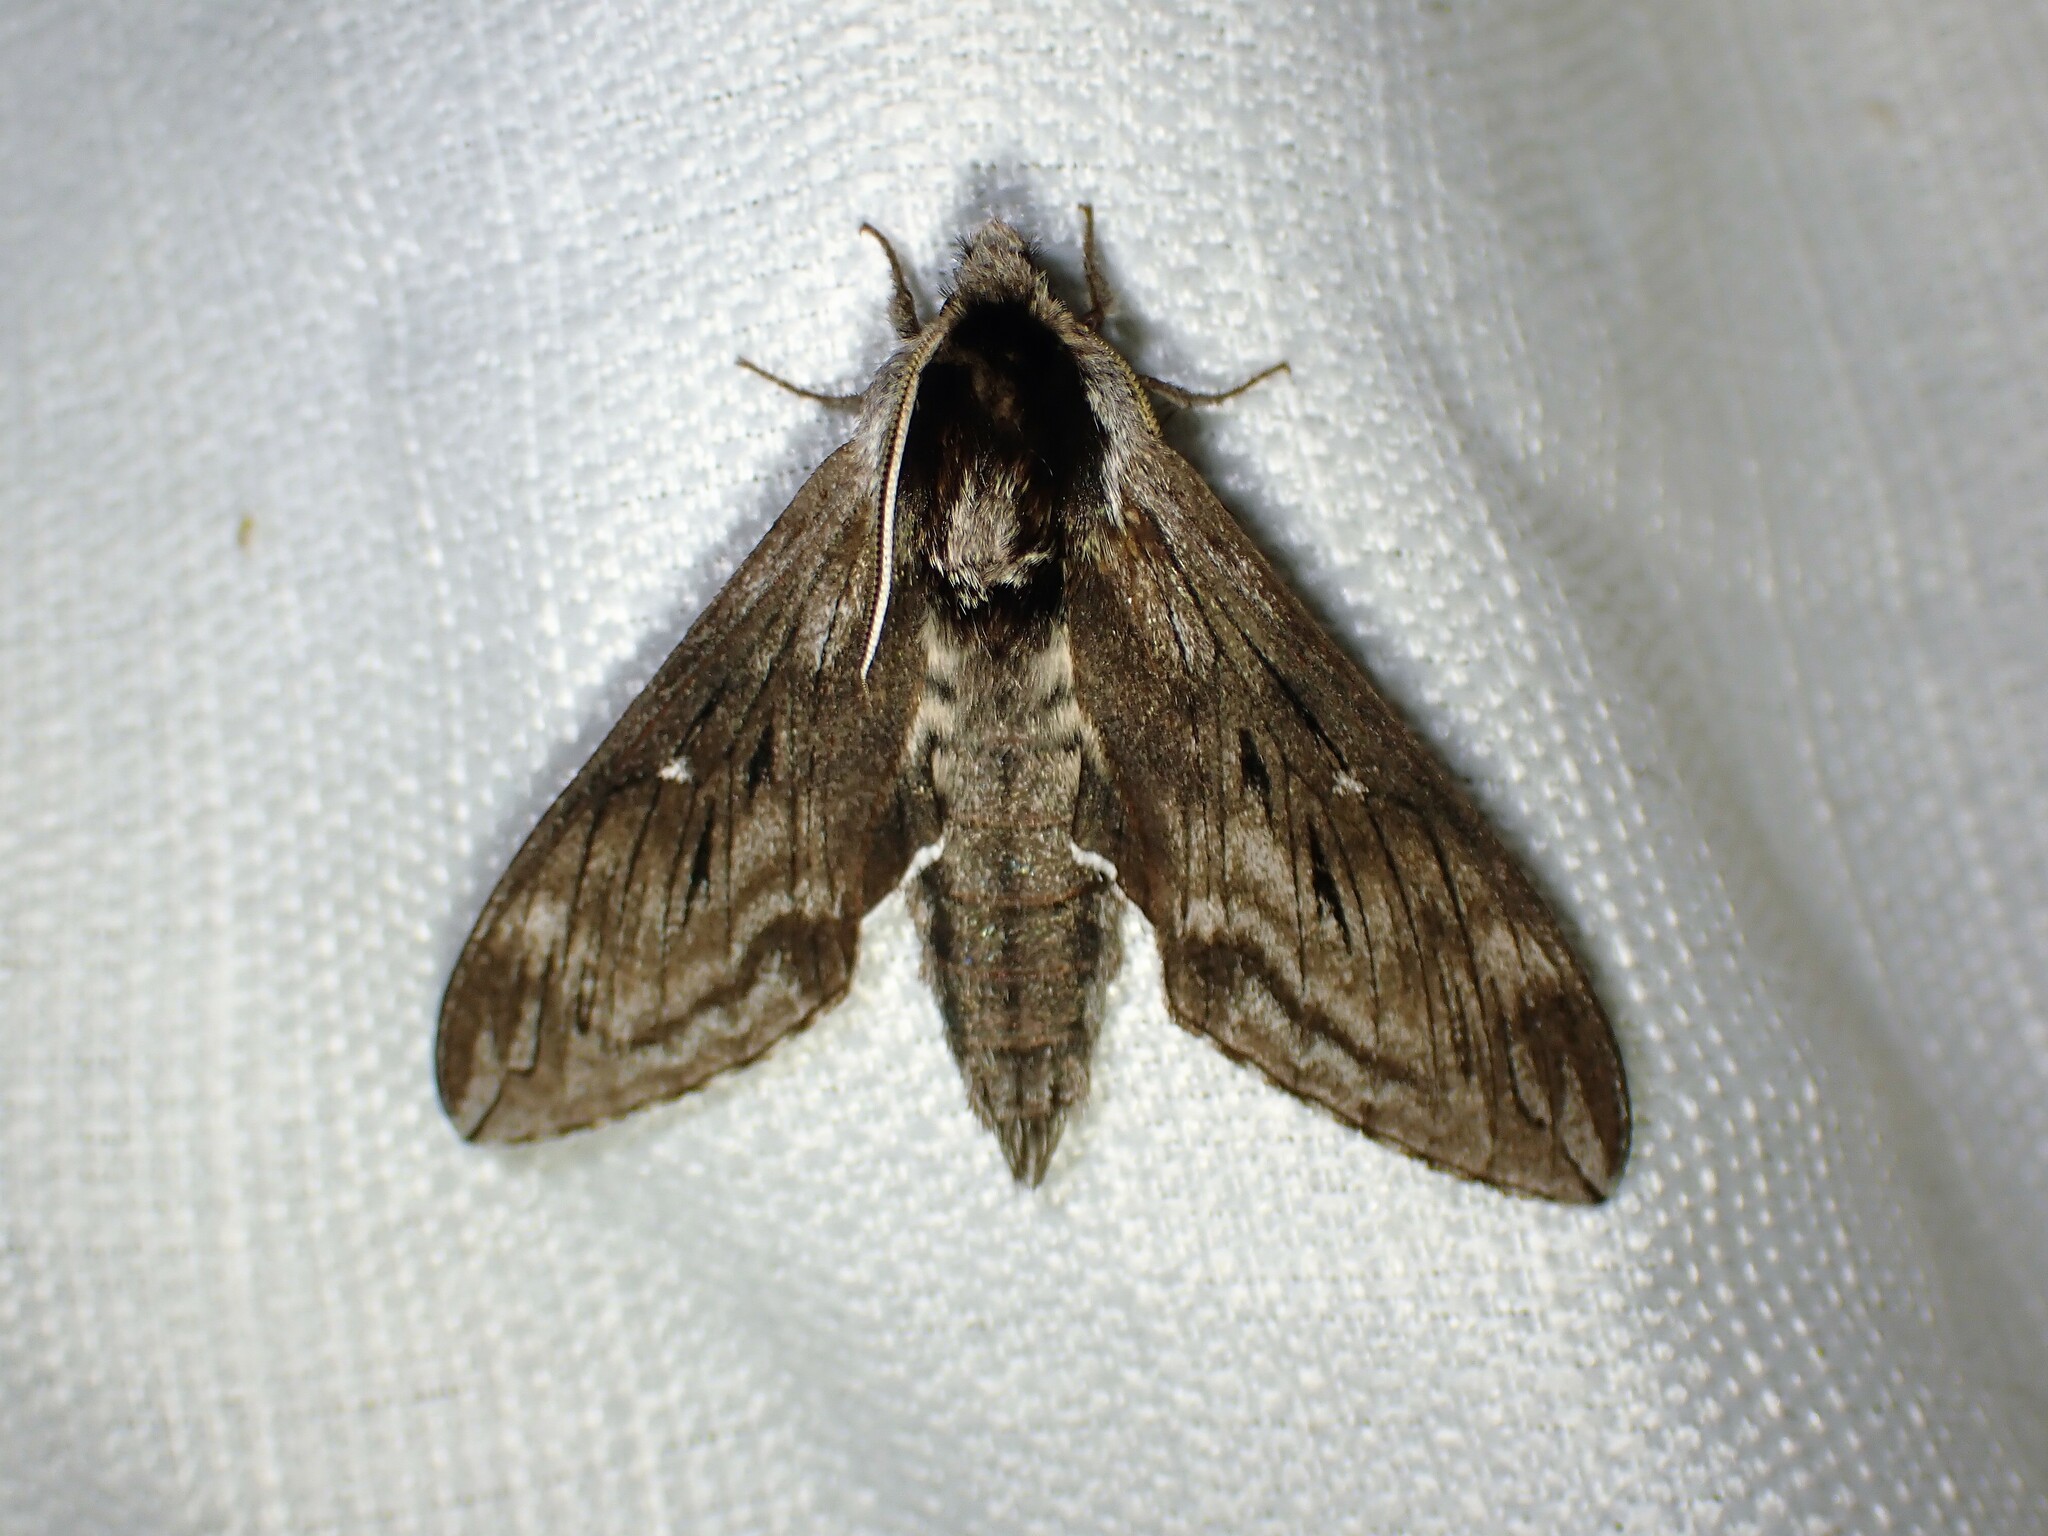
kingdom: Animalia
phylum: Arthropoda
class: Insecta
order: Lepidoptera
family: Sphingidae
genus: Sphinx
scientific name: Sphinx poecila
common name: Northern apple sphinx
